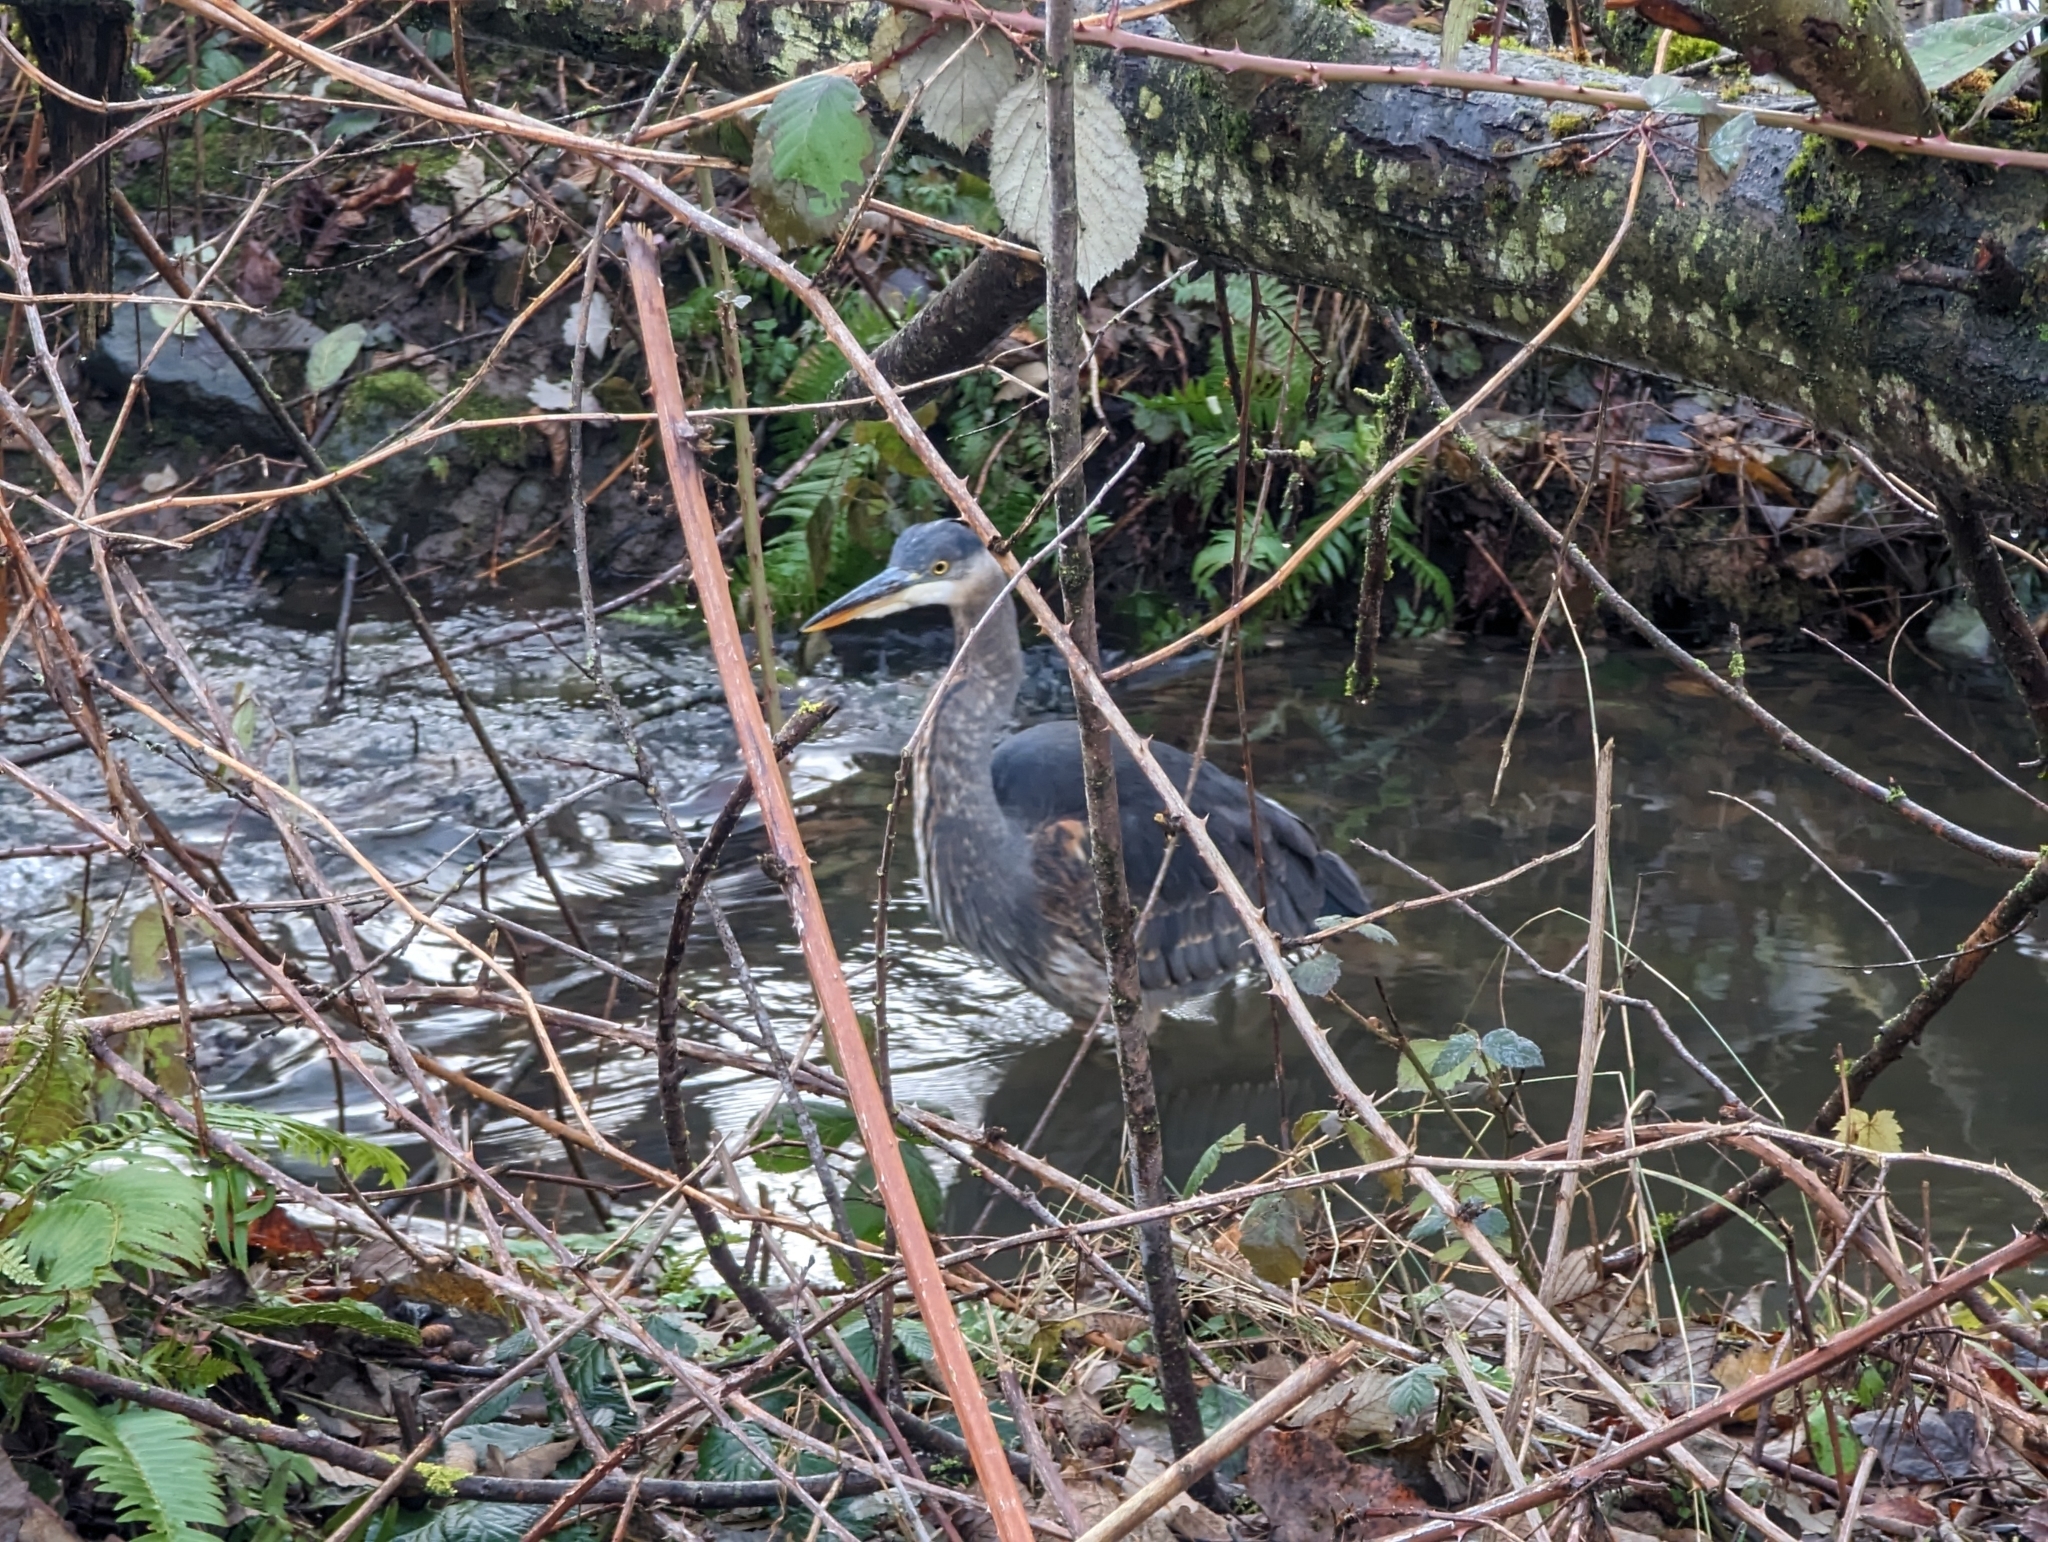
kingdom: Animalia
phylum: Chordata
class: Aves
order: Pelecaniformes
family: Ardeidae
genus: Ardea
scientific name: Ardea herodias
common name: Great blue heron
